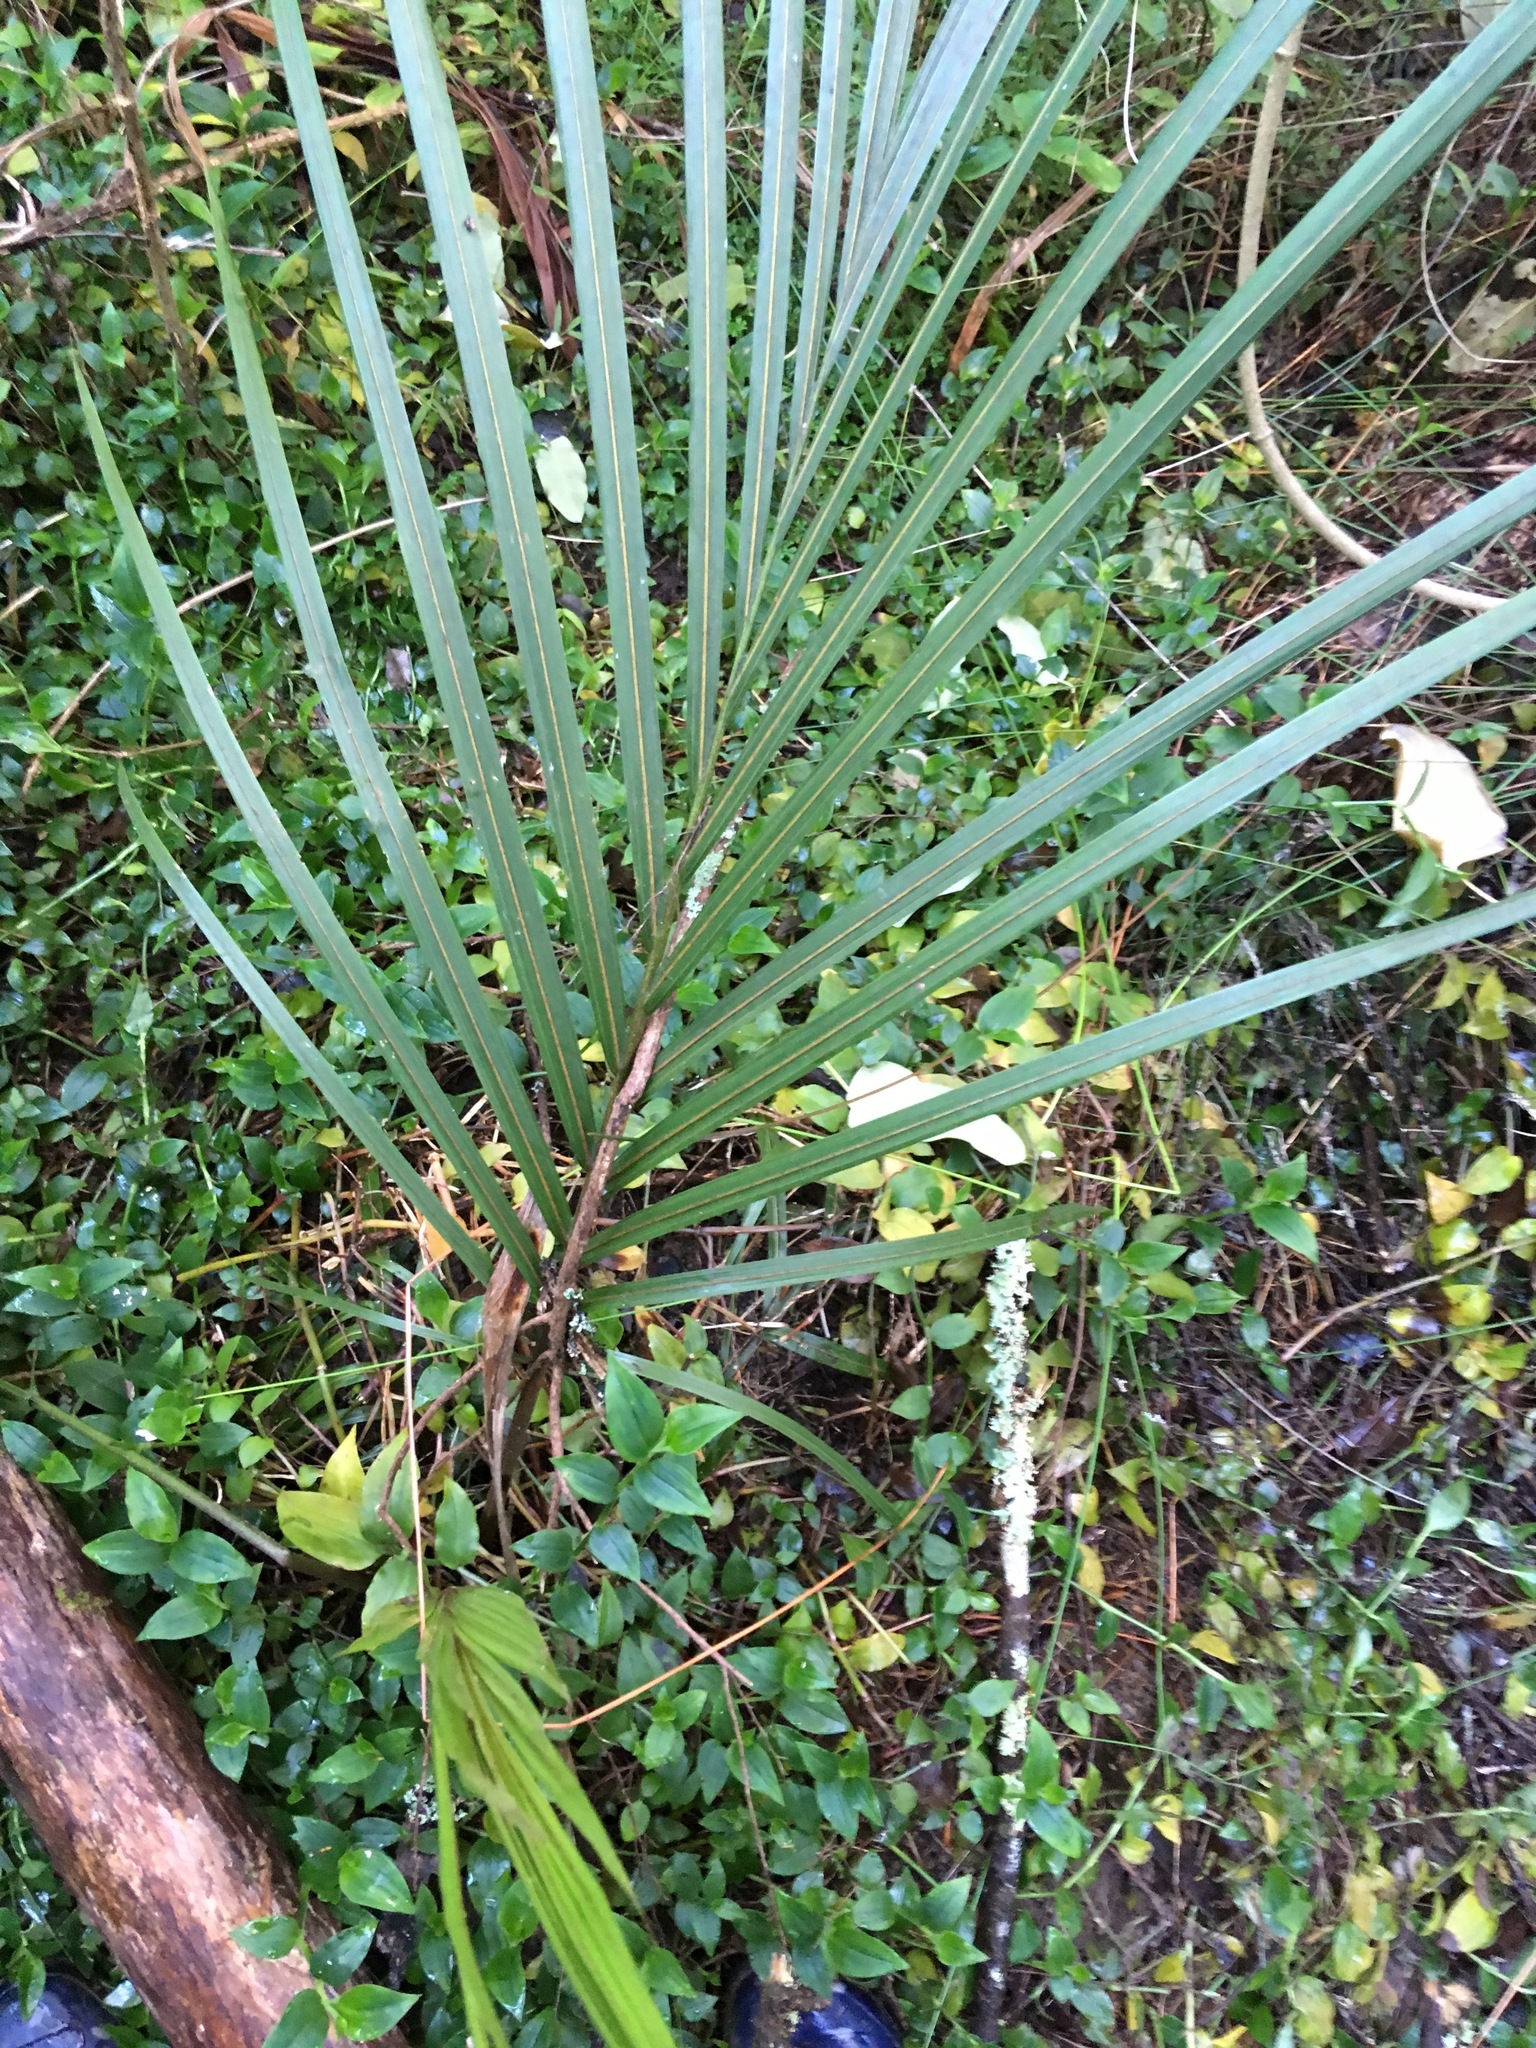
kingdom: Plantae
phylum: Tracheophyta
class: Liliopsida
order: Arecales
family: Arecaceae
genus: Rhopalostylis
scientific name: Rhopalostylis sapida
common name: Feather-duster palm
